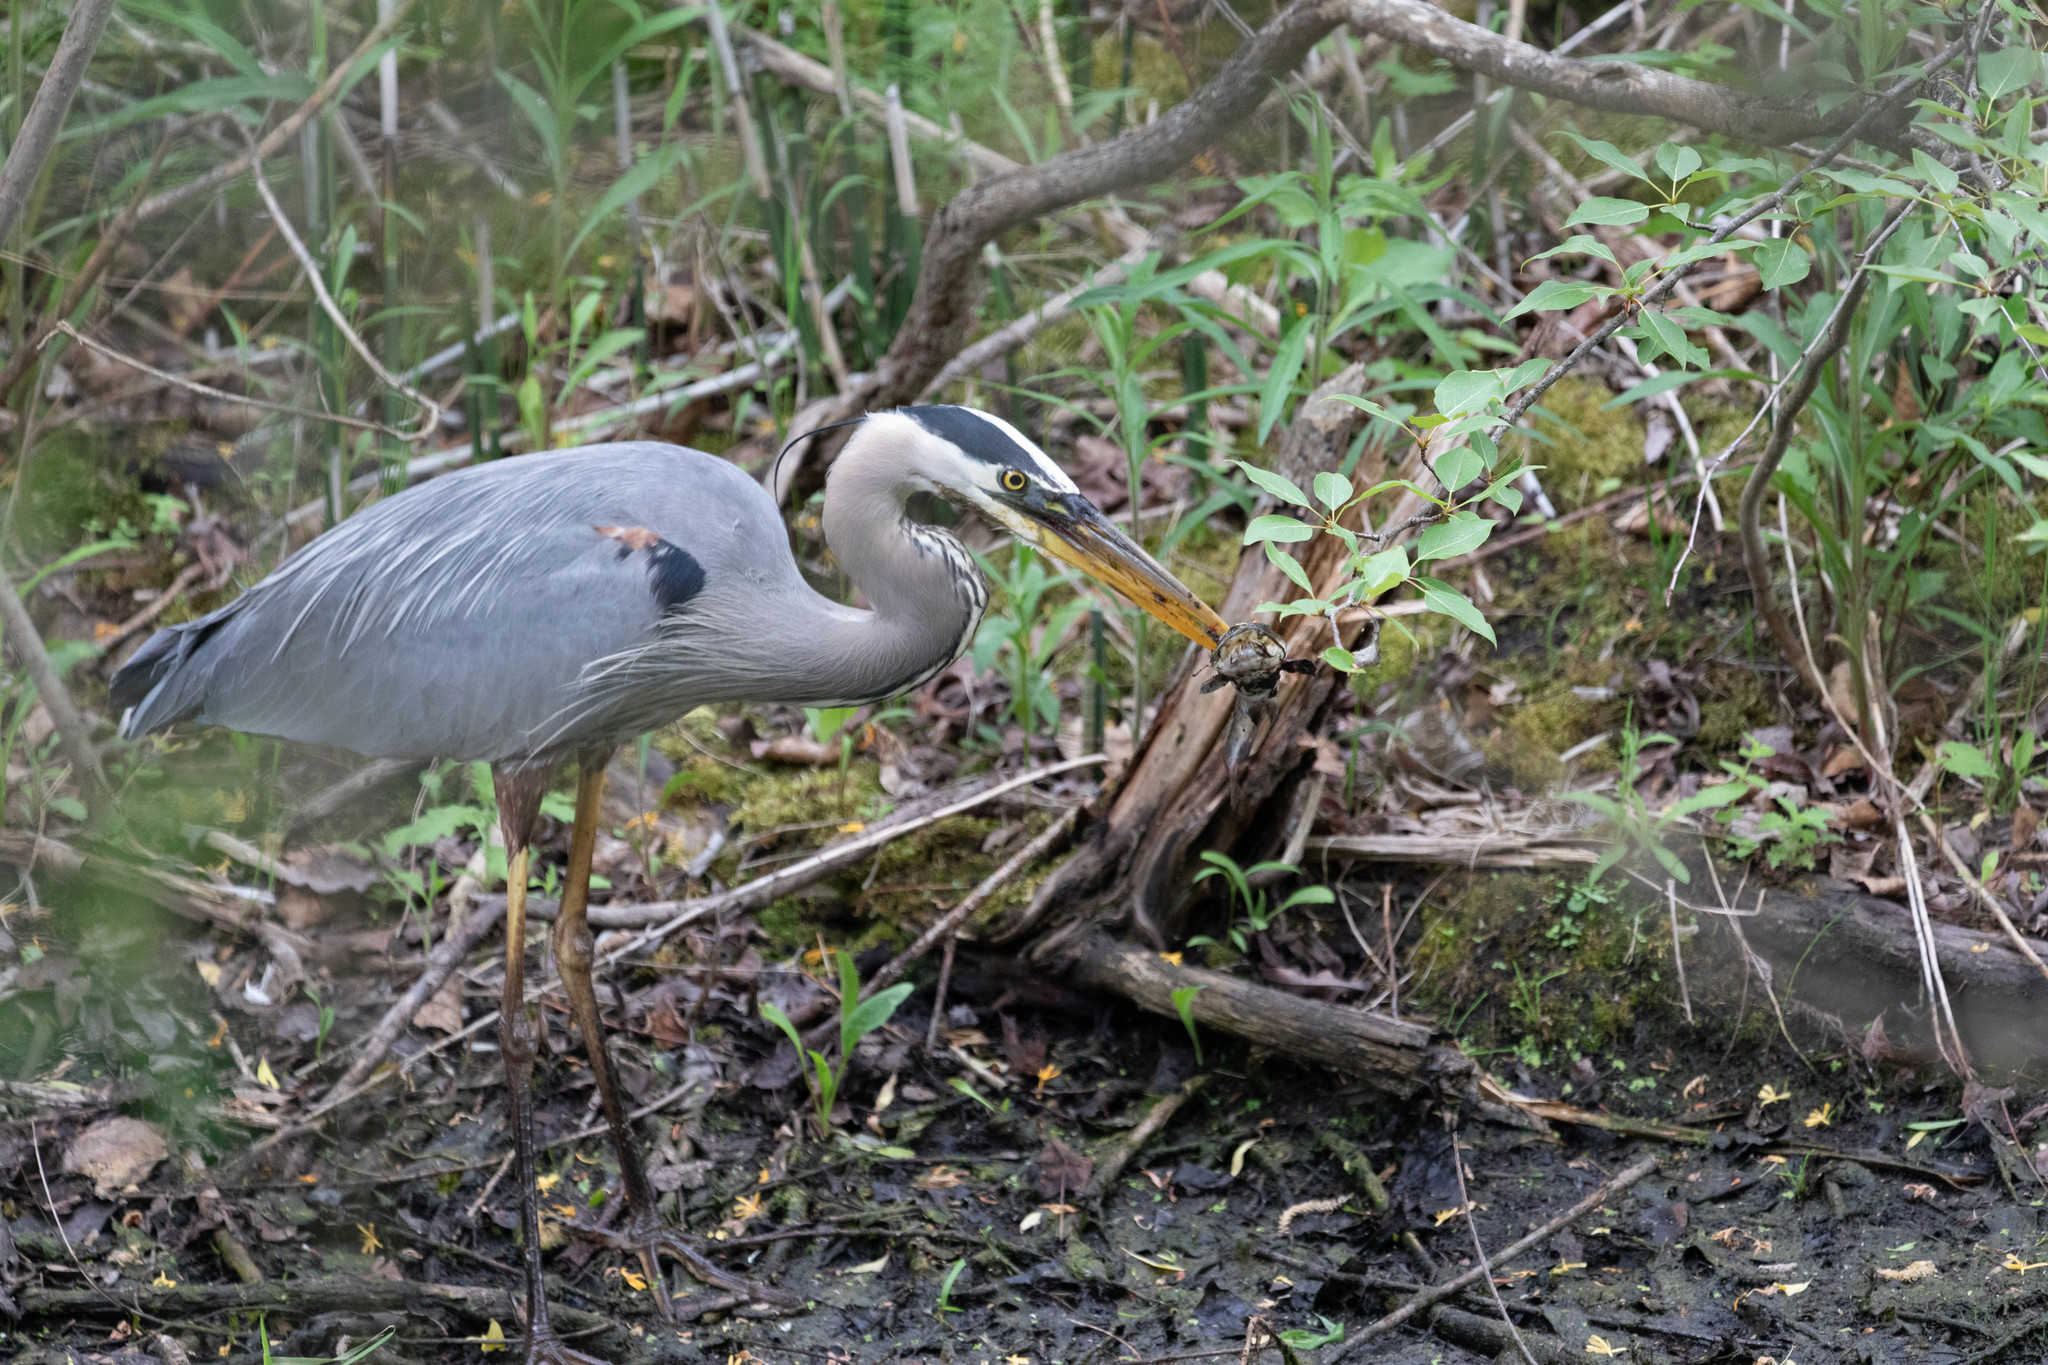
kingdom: Animalia
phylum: Chordata
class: Aves
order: Pelecaniformes
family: Ardeidae
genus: Ardea
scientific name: Ardea herodias
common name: Great blue heron
